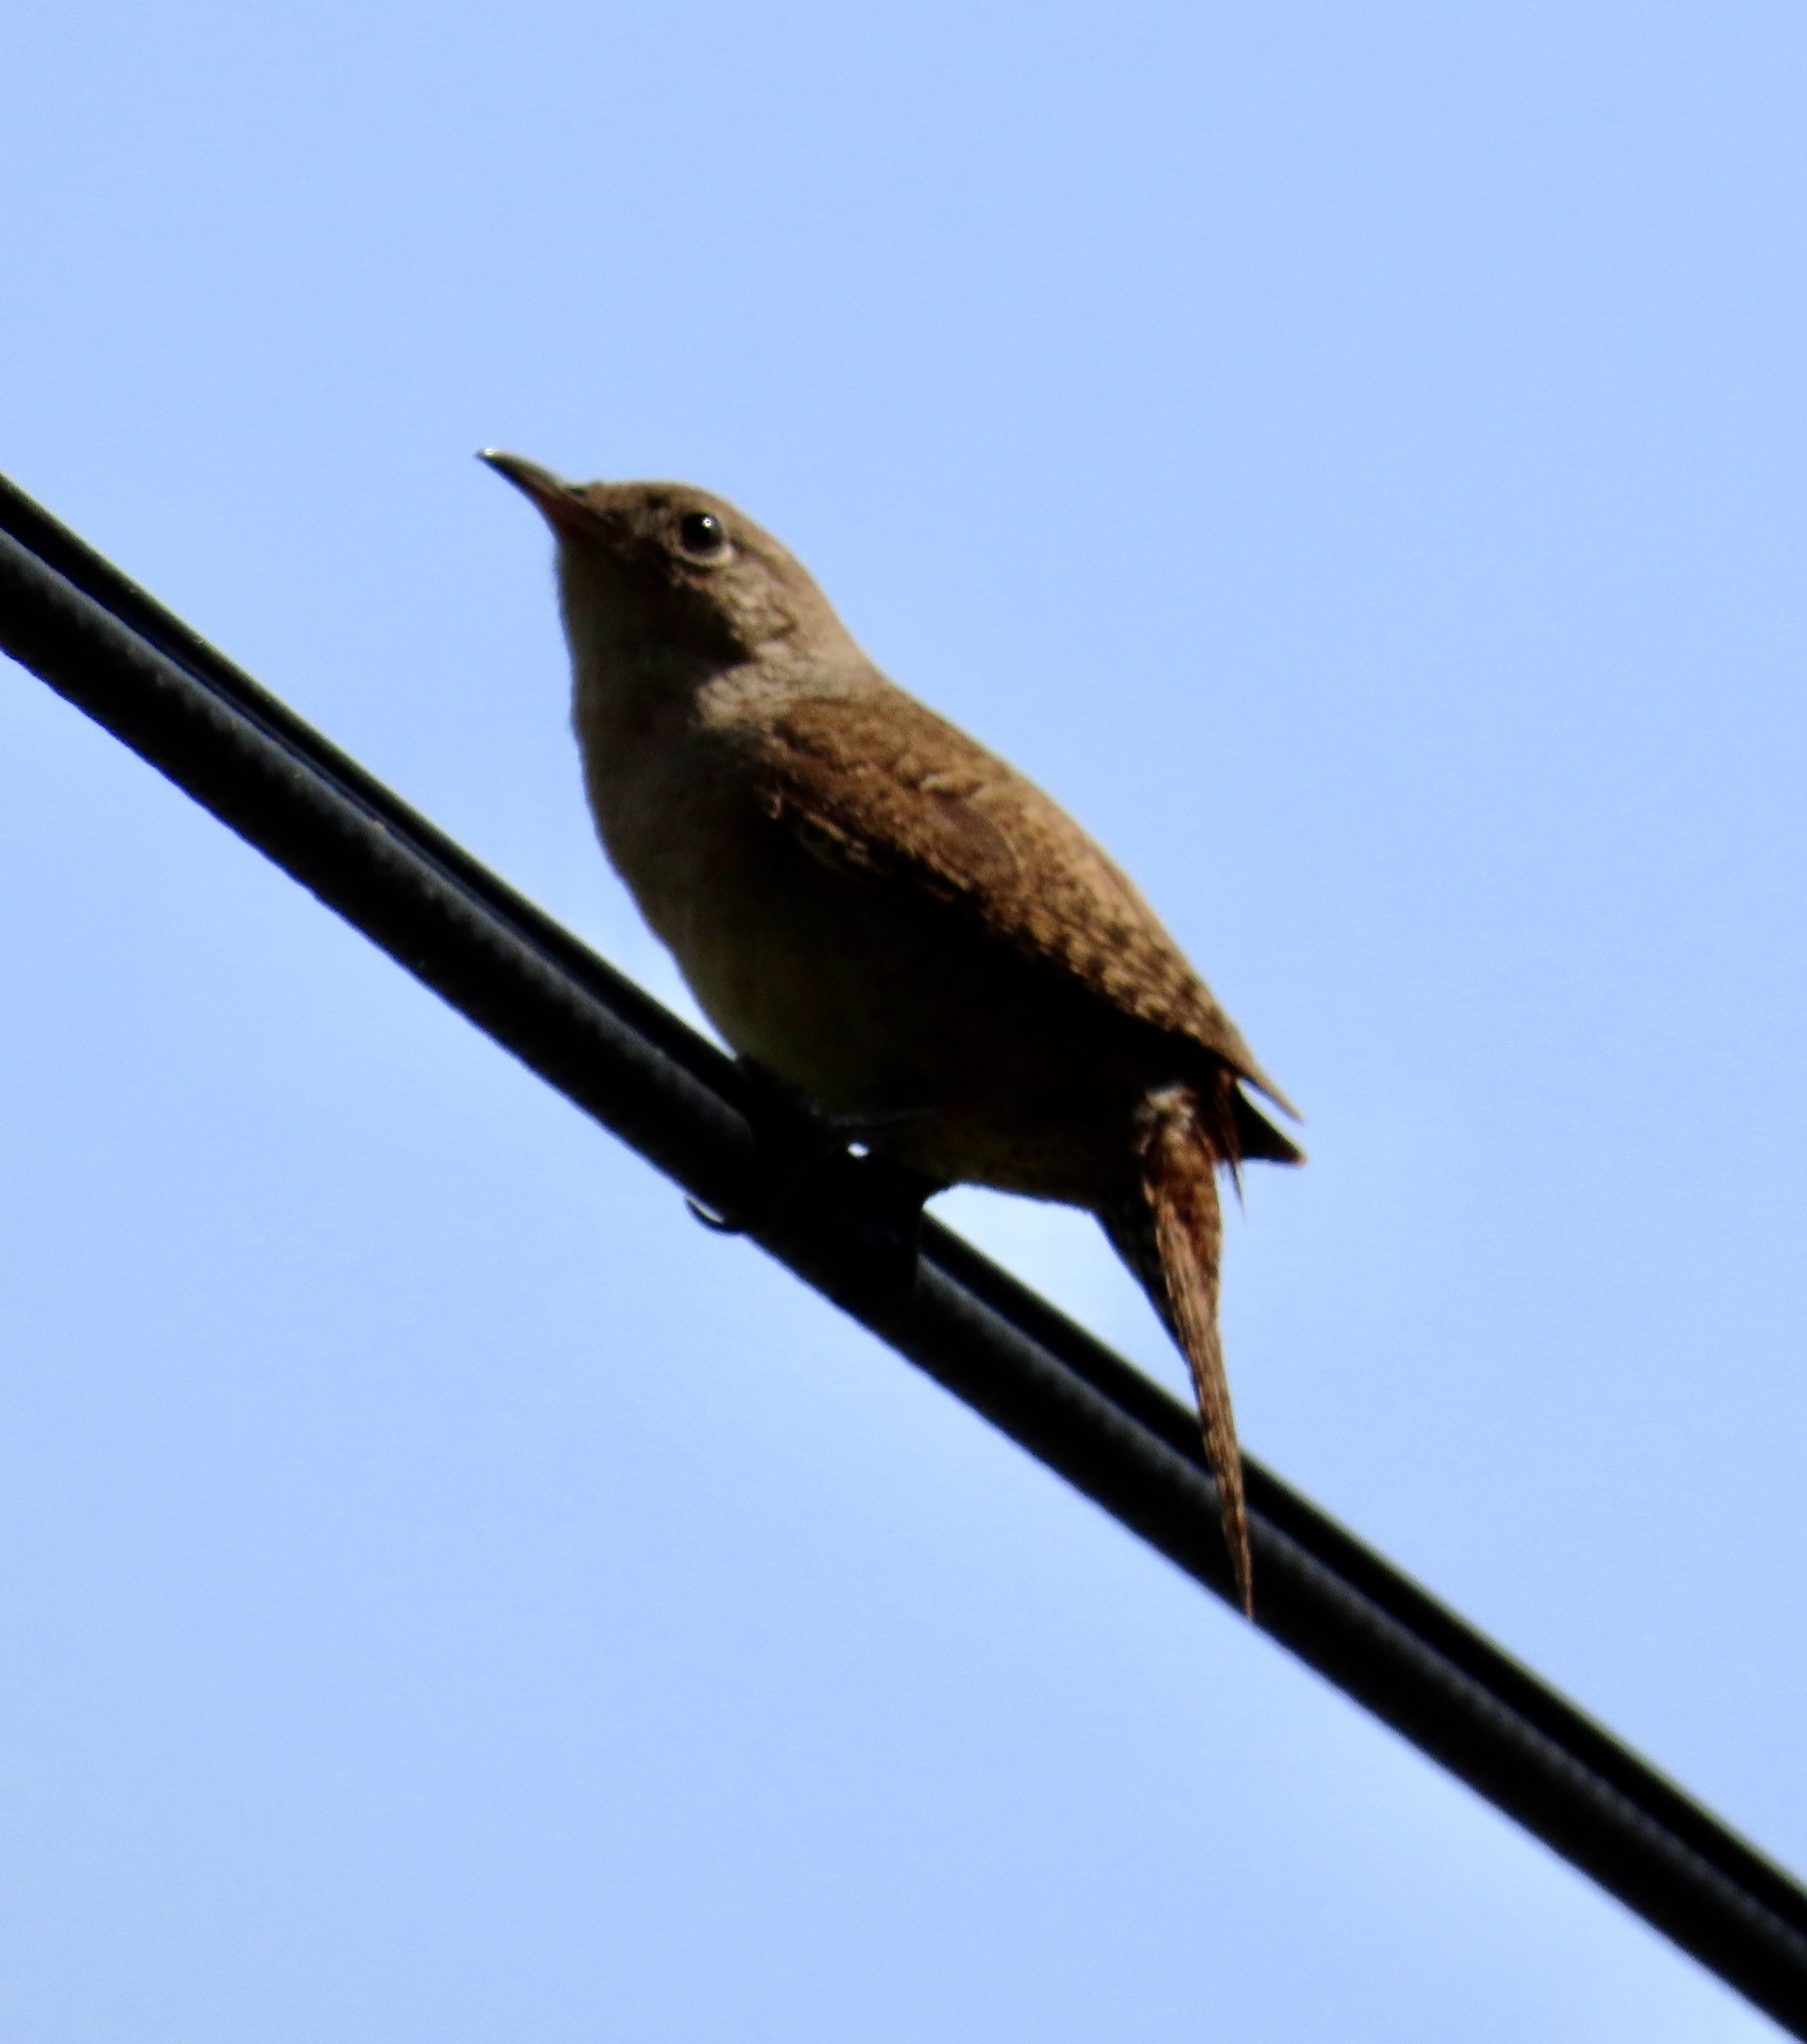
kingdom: Animalia
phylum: Chordata
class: Aves
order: Passeriformes
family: Troglodytidae
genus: Troglodytes
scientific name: Troglodytes aedon
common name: House wren
